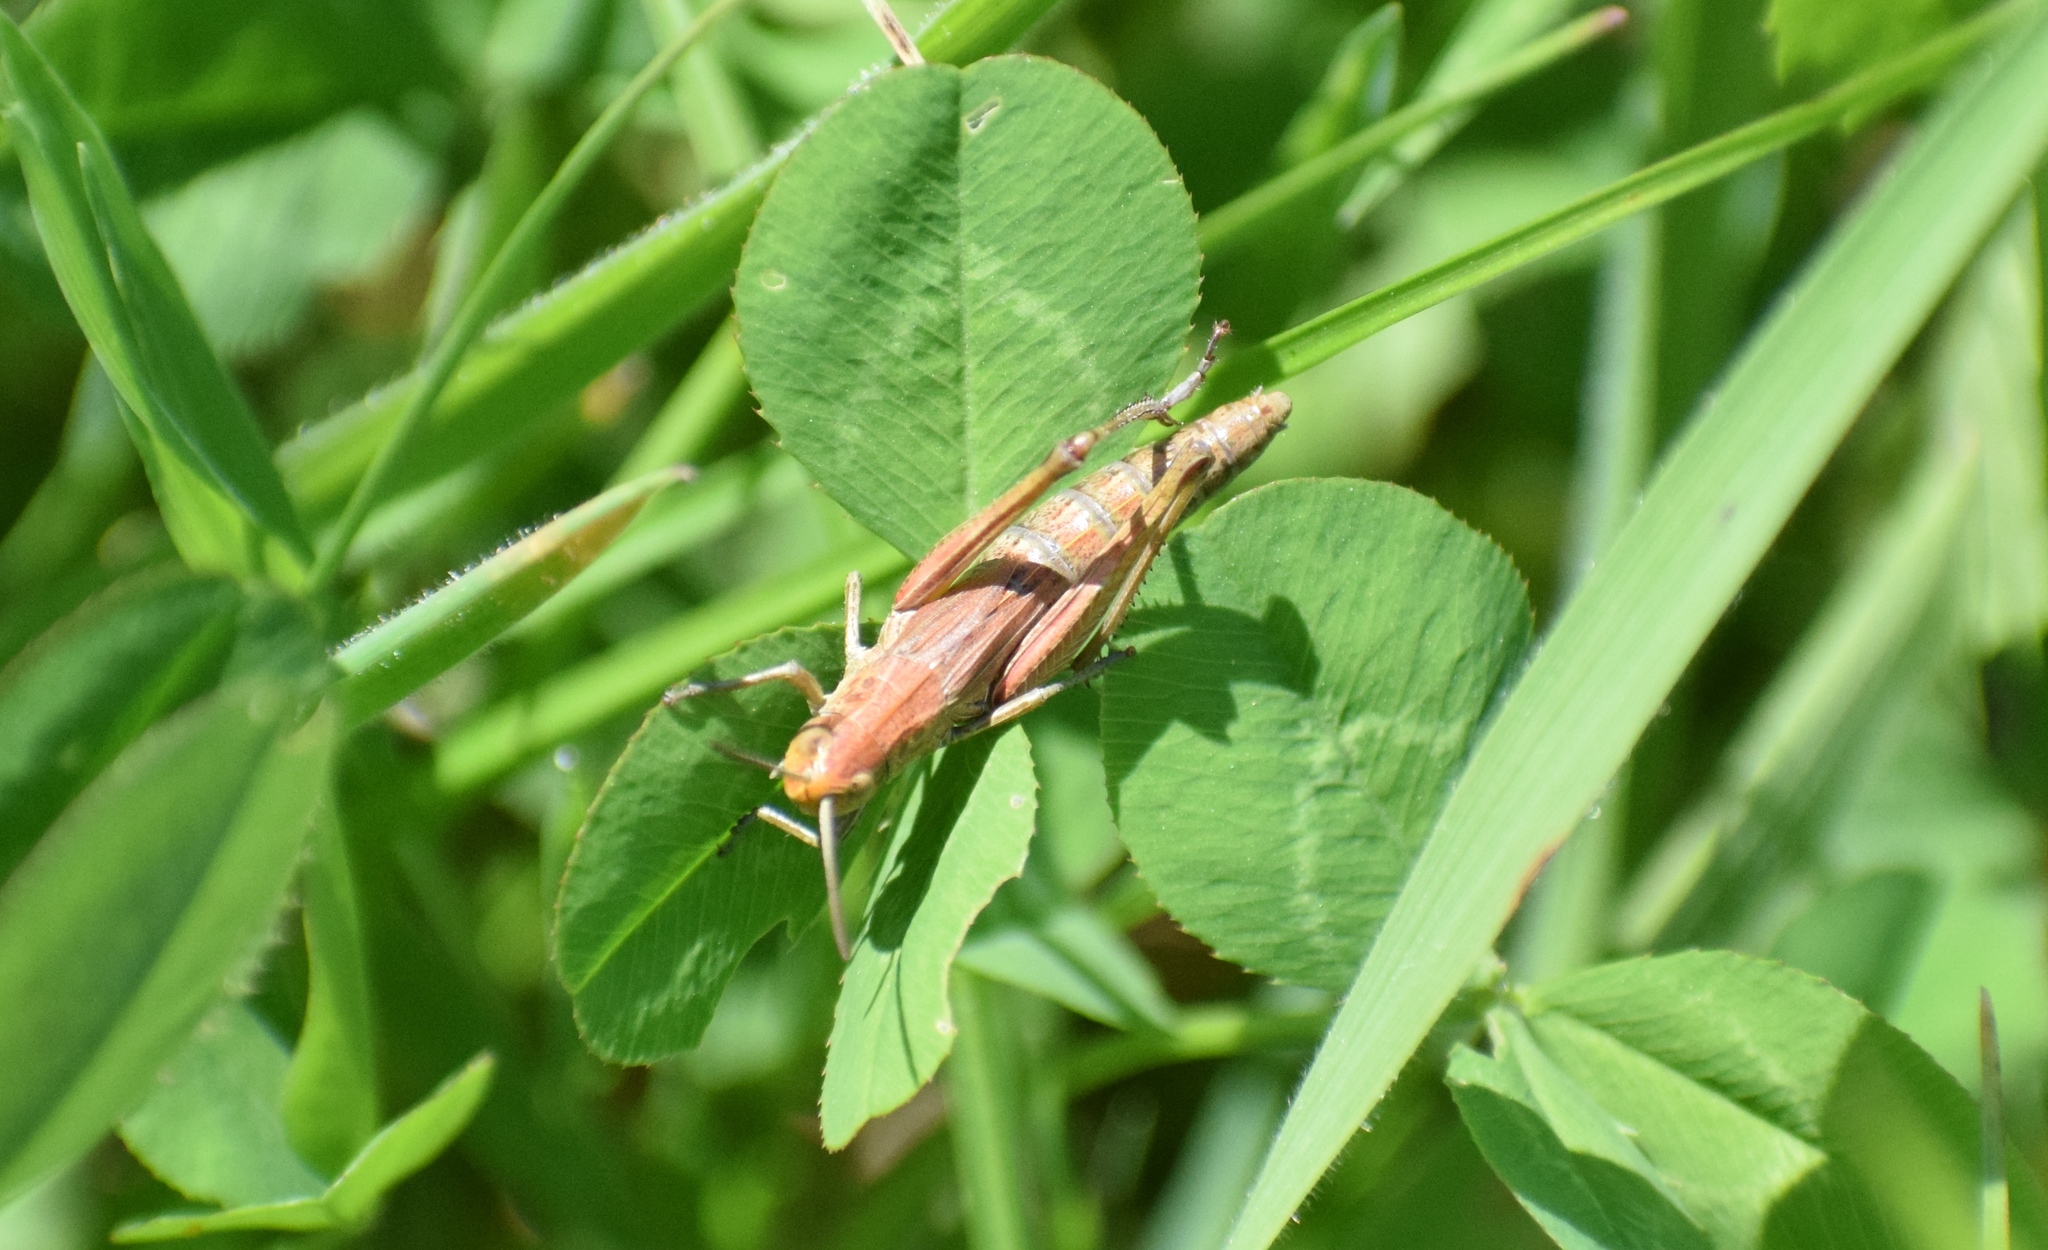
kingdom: Animalia
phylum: Arthropoda
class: Insecta
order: Orthoptera
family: Acrididae
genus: Pseudochorthippus
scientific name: Pseudochorthippus parallelus
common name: Meadow grasshopper
